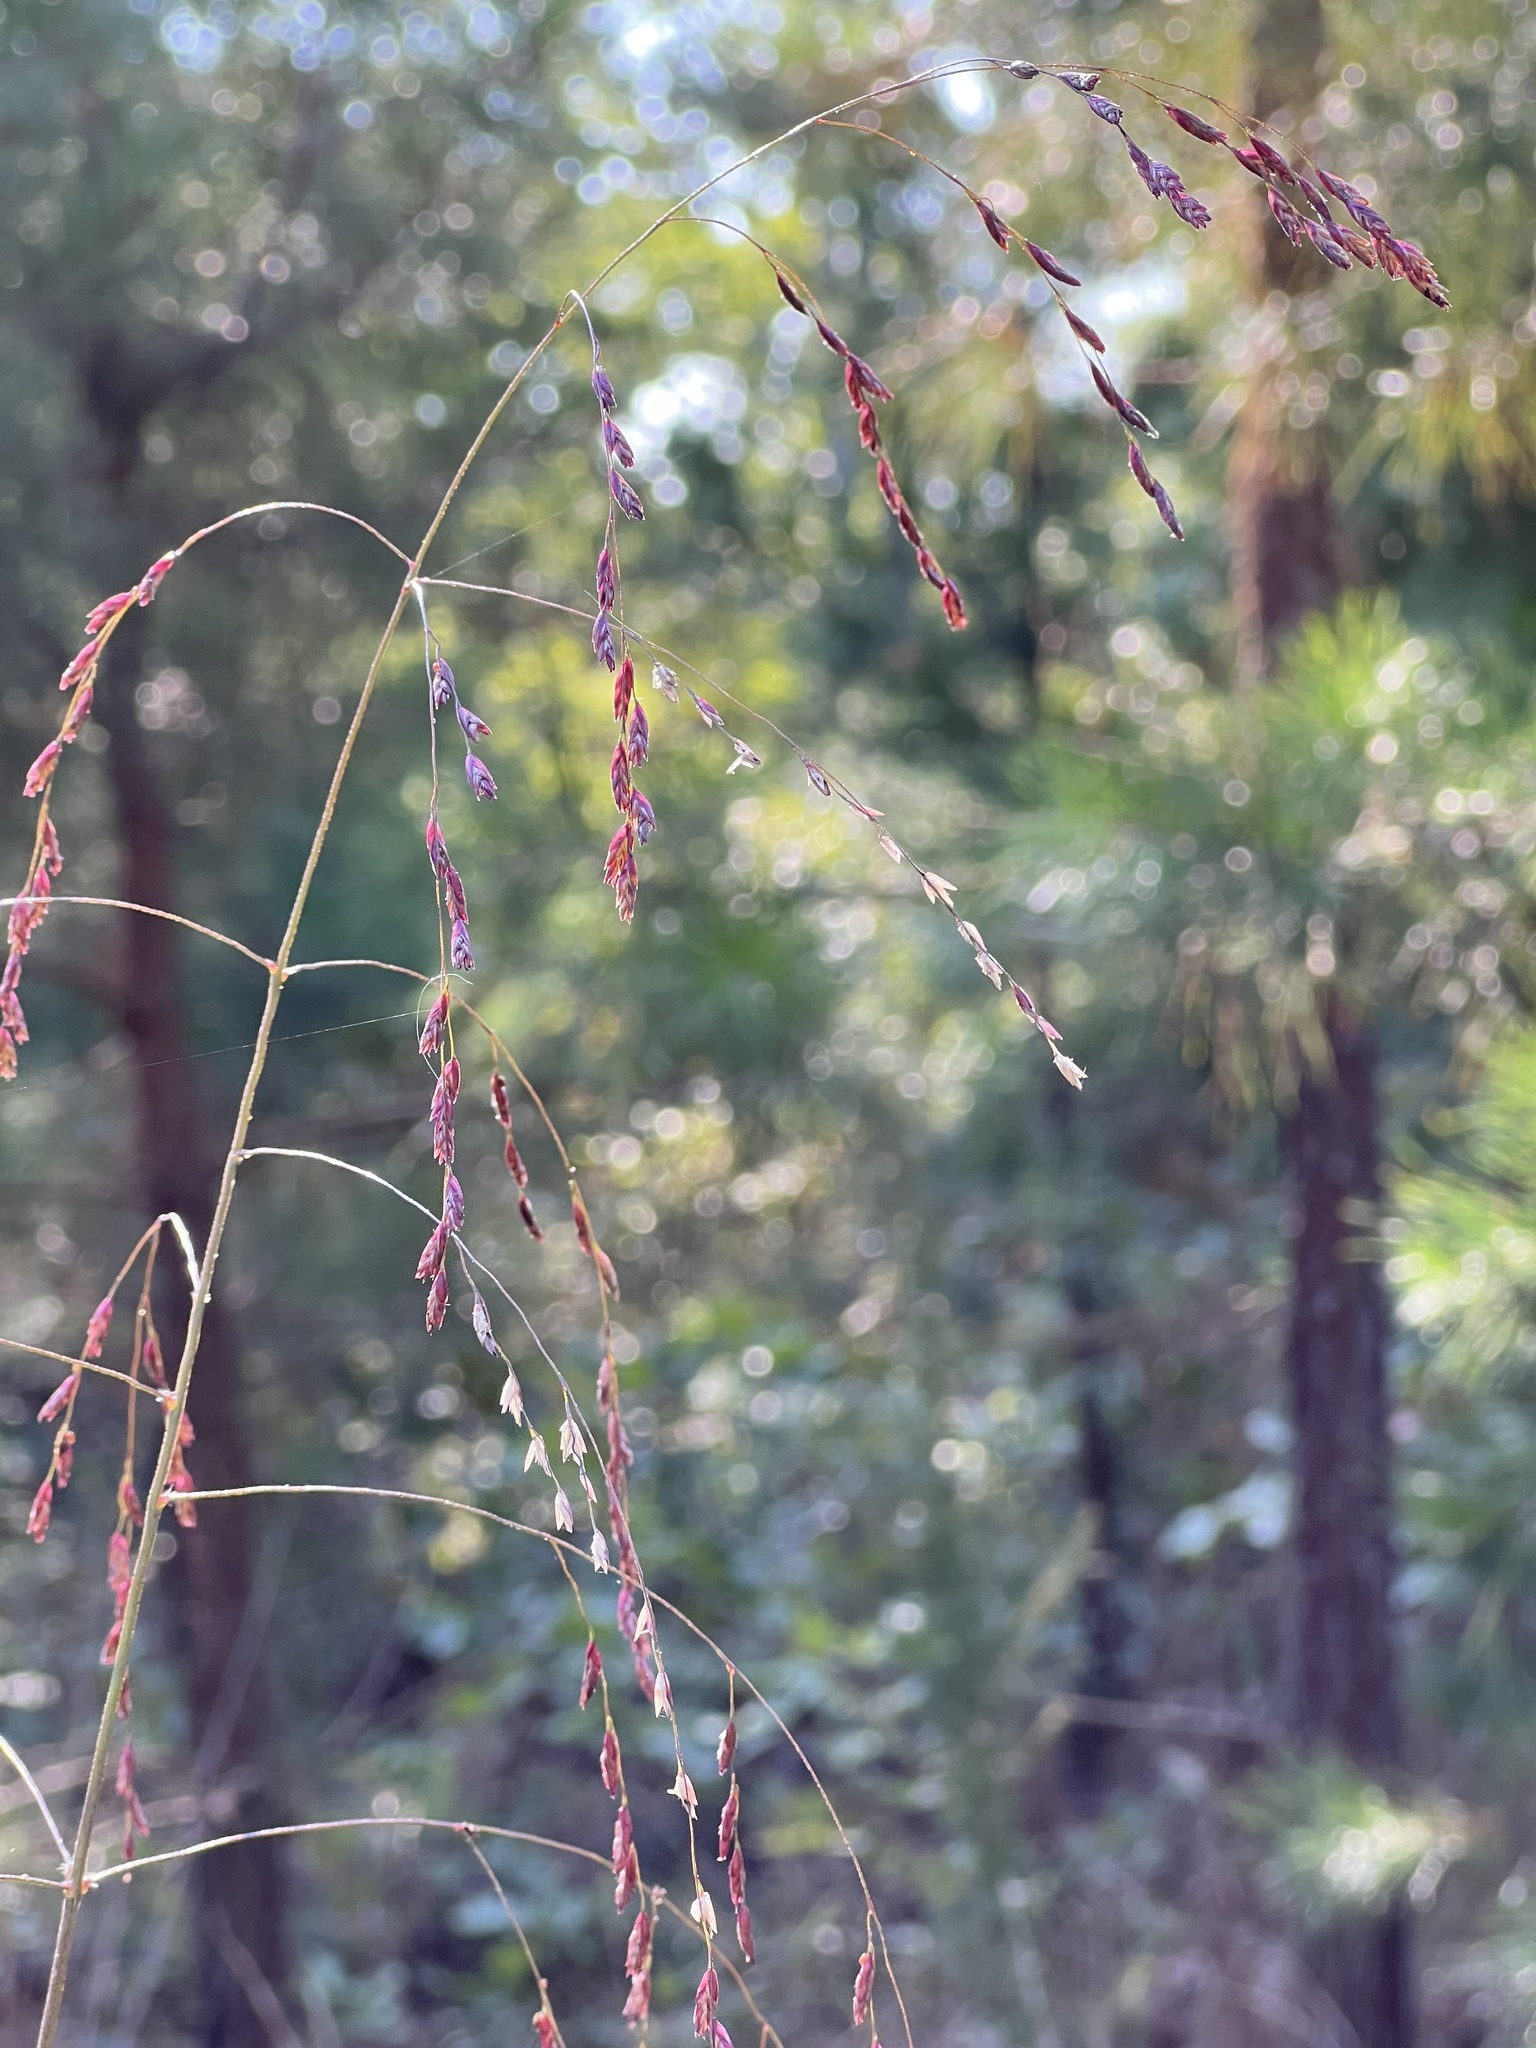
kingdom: Plantae
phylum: Tracheophyta
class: Liliopsida
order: Poales
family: Poaceae
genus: Tridens
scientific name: Tridens flavus
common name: Purpletop
